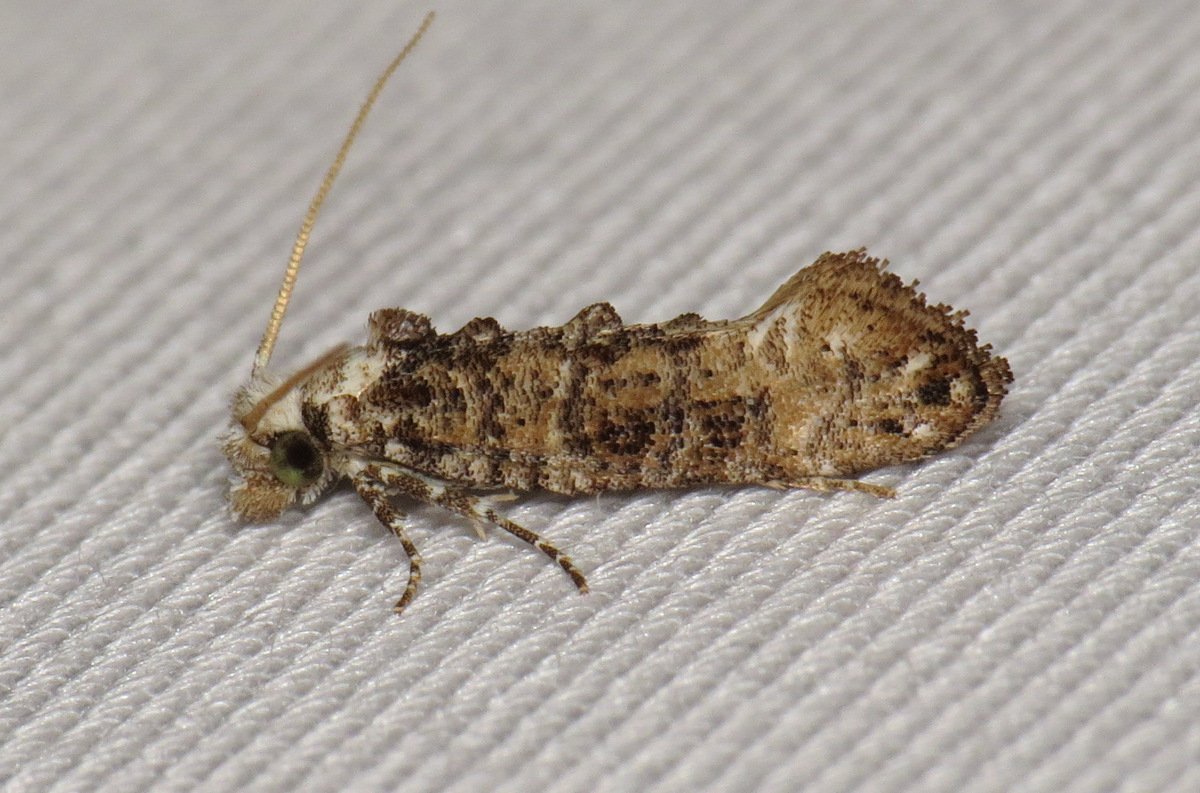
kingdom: Animalia
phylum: Arthropoda
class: Insecta
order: Lepidoptera
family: Tineidae
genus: Xylesthia
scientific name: Xylesthia pruniramiella
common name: Clemens' bark moth
